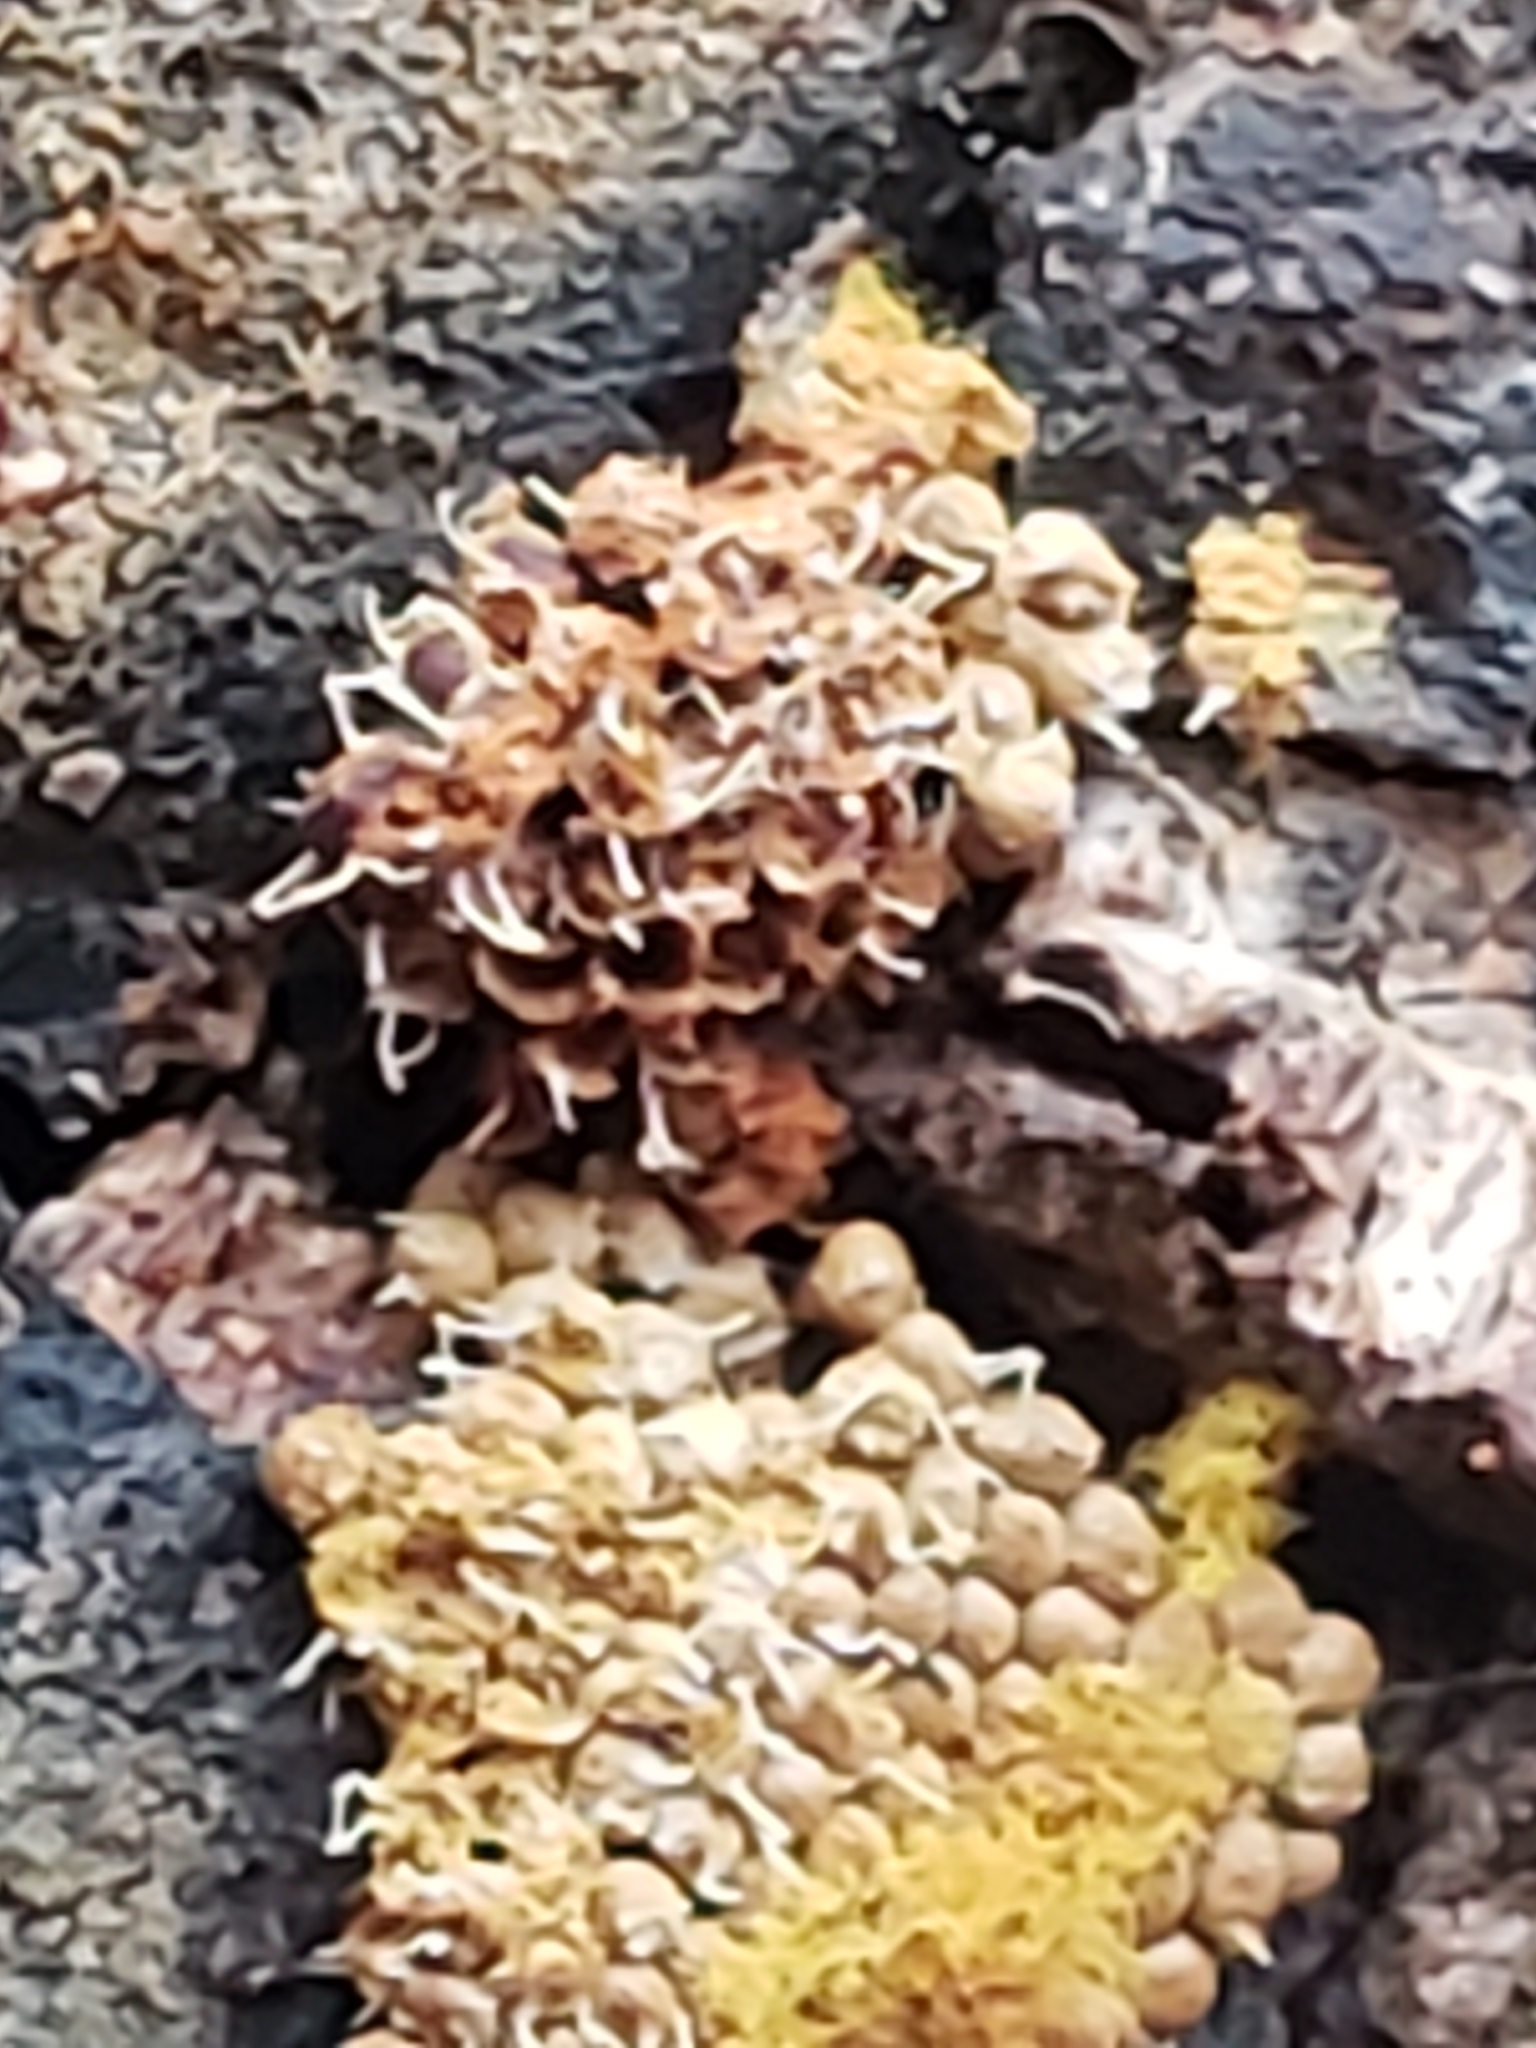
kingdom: Fungi
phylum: Ascomycota
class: Sordariomycetes
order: Hypocreales
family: Ophiocordycipitaceae
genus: Polycephalomyces
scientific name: Polycephalomyces tomentosus
